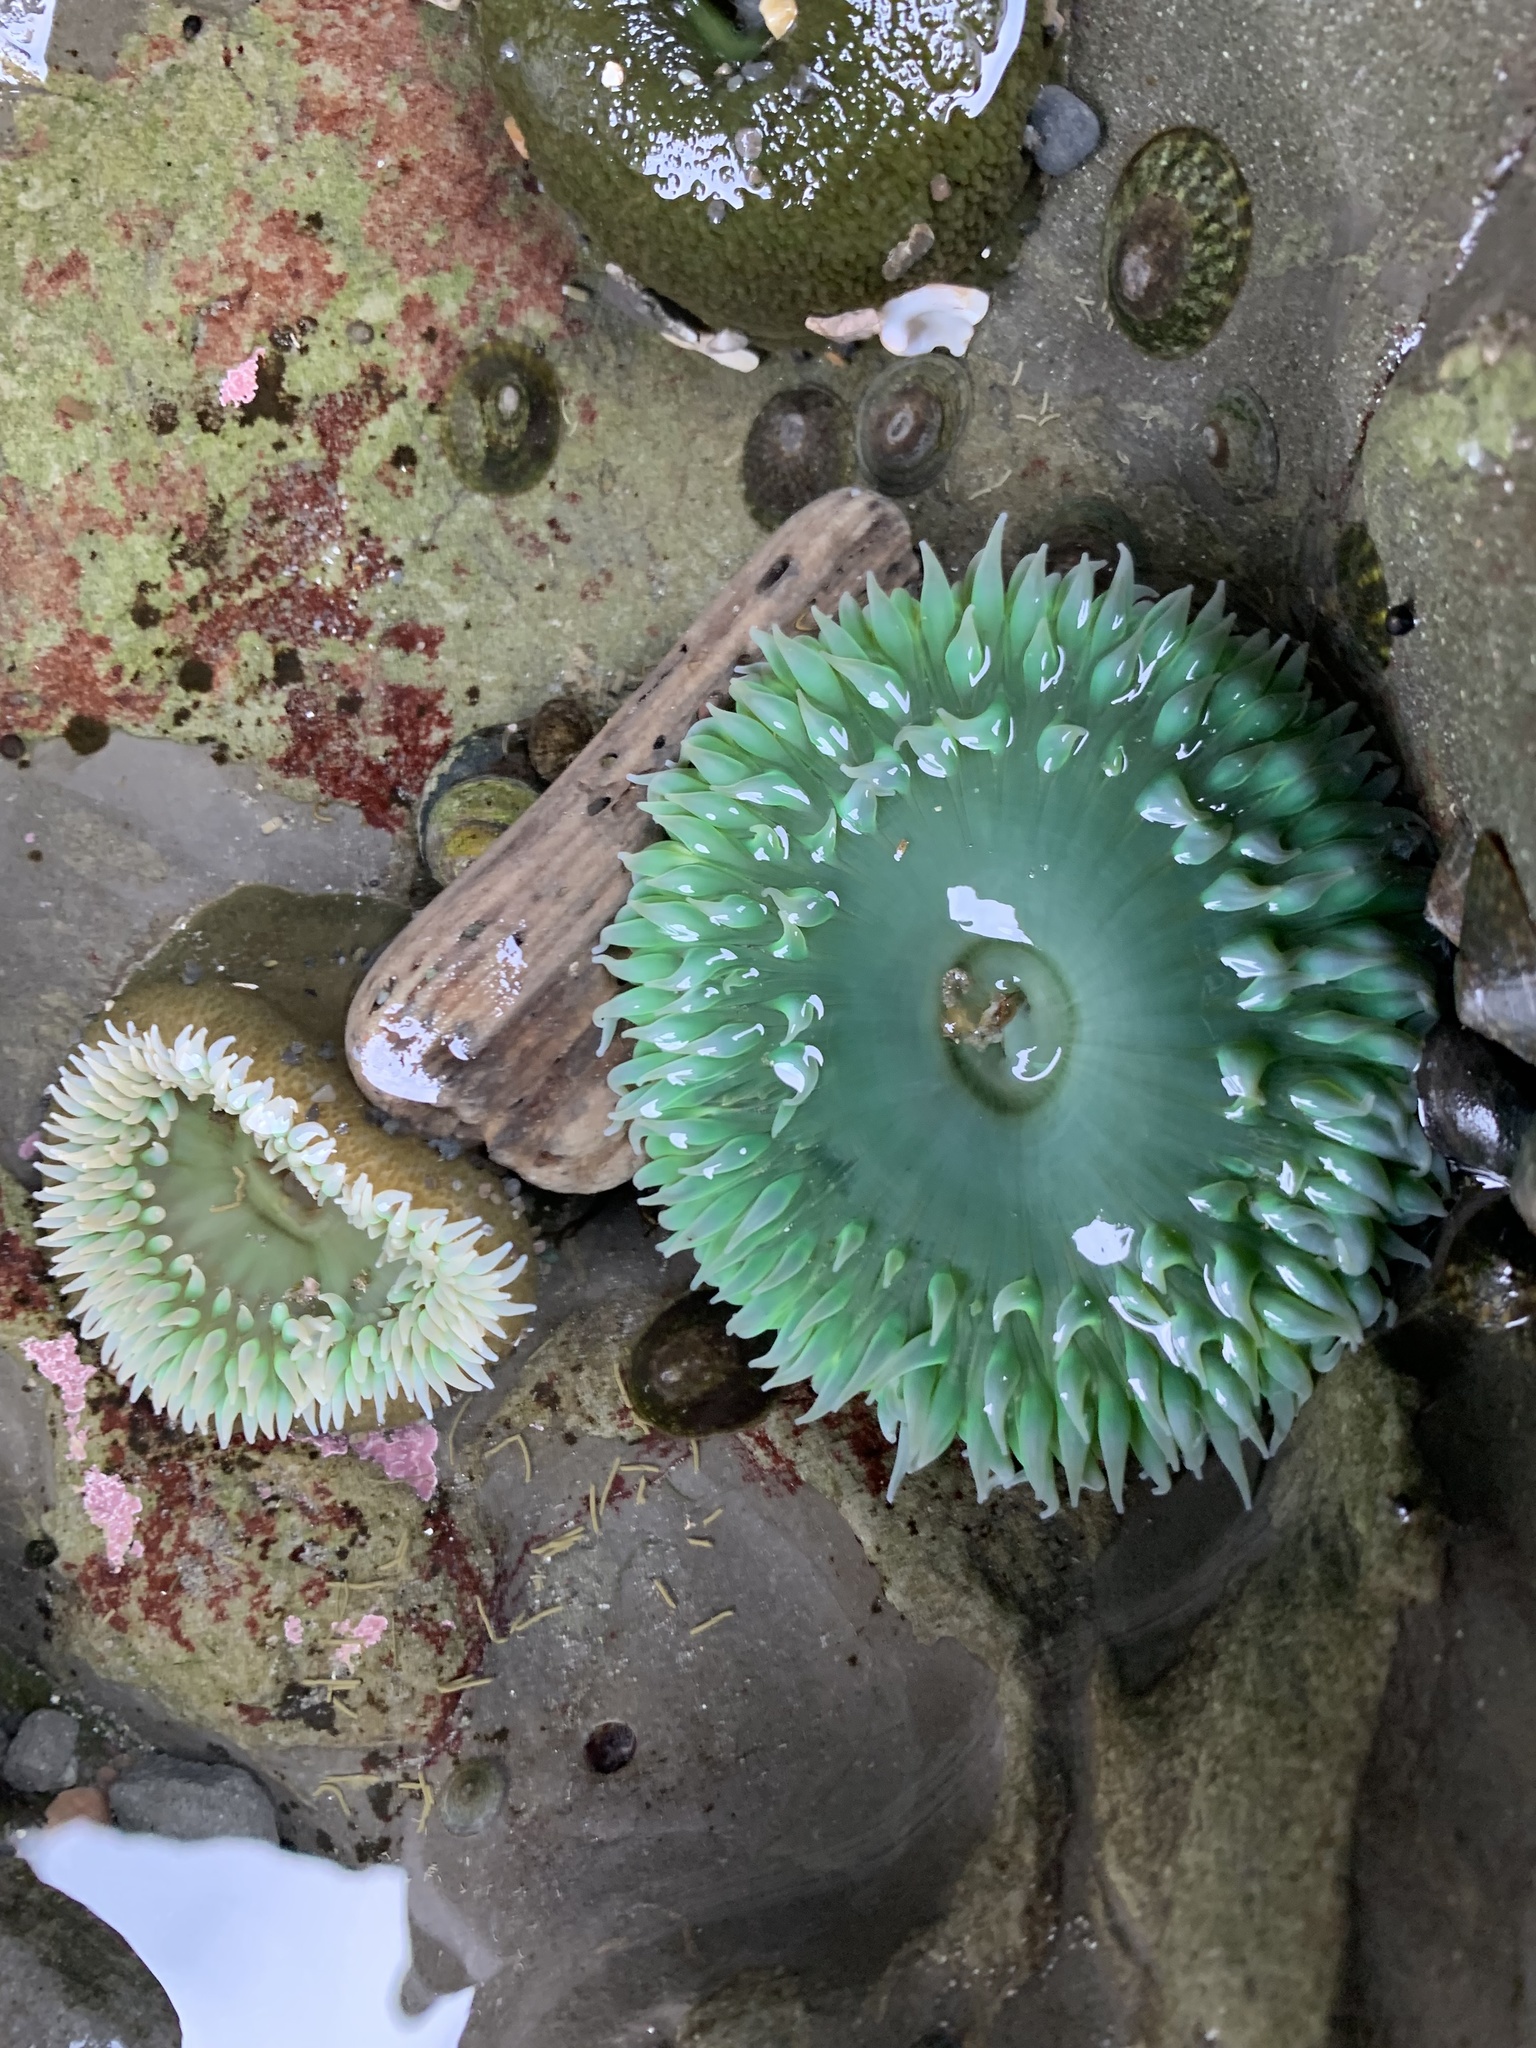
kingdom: Animalia
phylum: Cnidaria
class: Anthozoa
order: Actiniaria
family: Actiniidae
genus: Anthopleura
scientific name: Anthopleura xanthogrammica
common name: Giant green anemone
